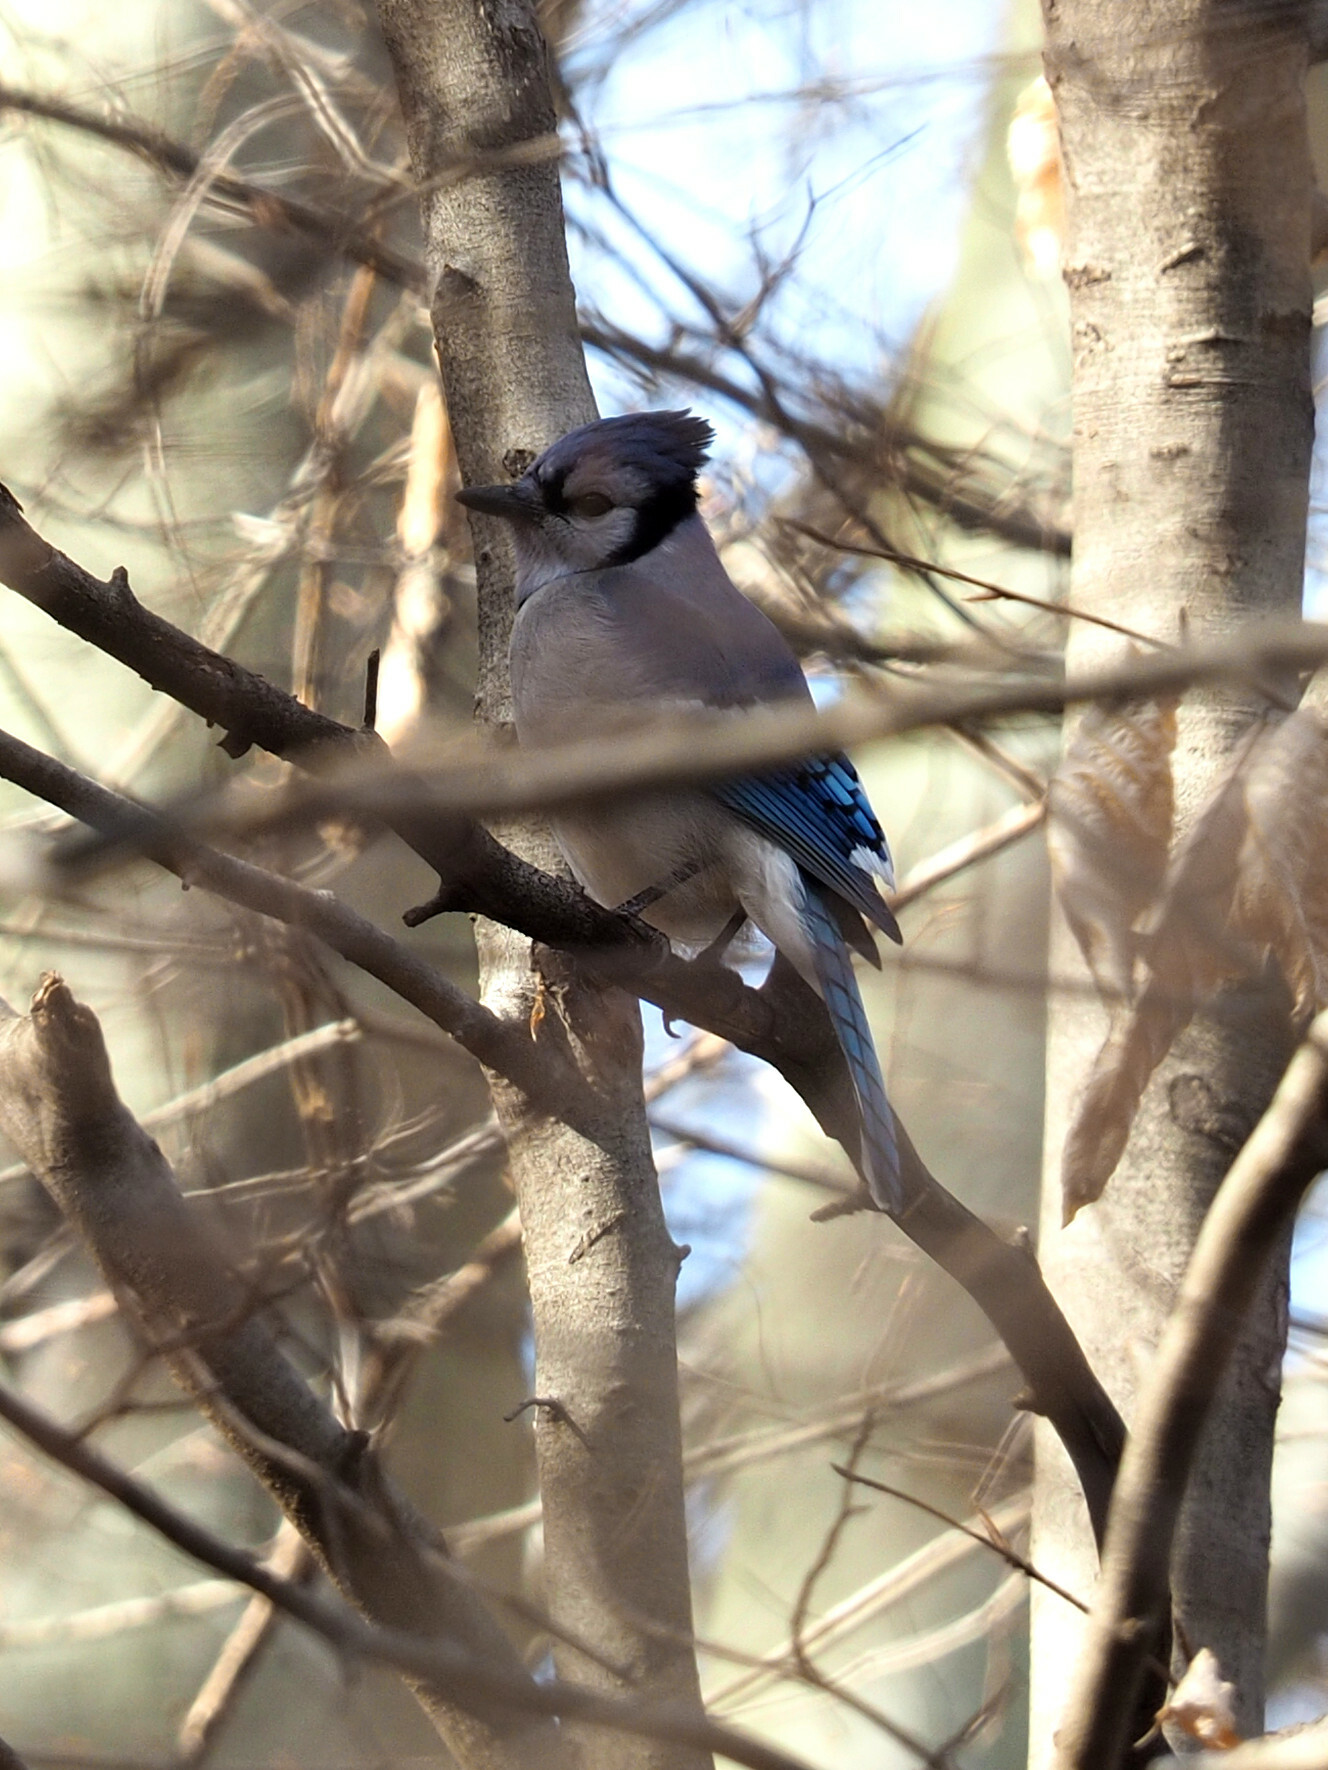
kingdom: Animalia
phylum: Chordata
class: Aves
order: Passeriformes
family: Corvidae
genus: Cyanocitta
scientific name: Cyanocitta cristata
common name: Blue jay
